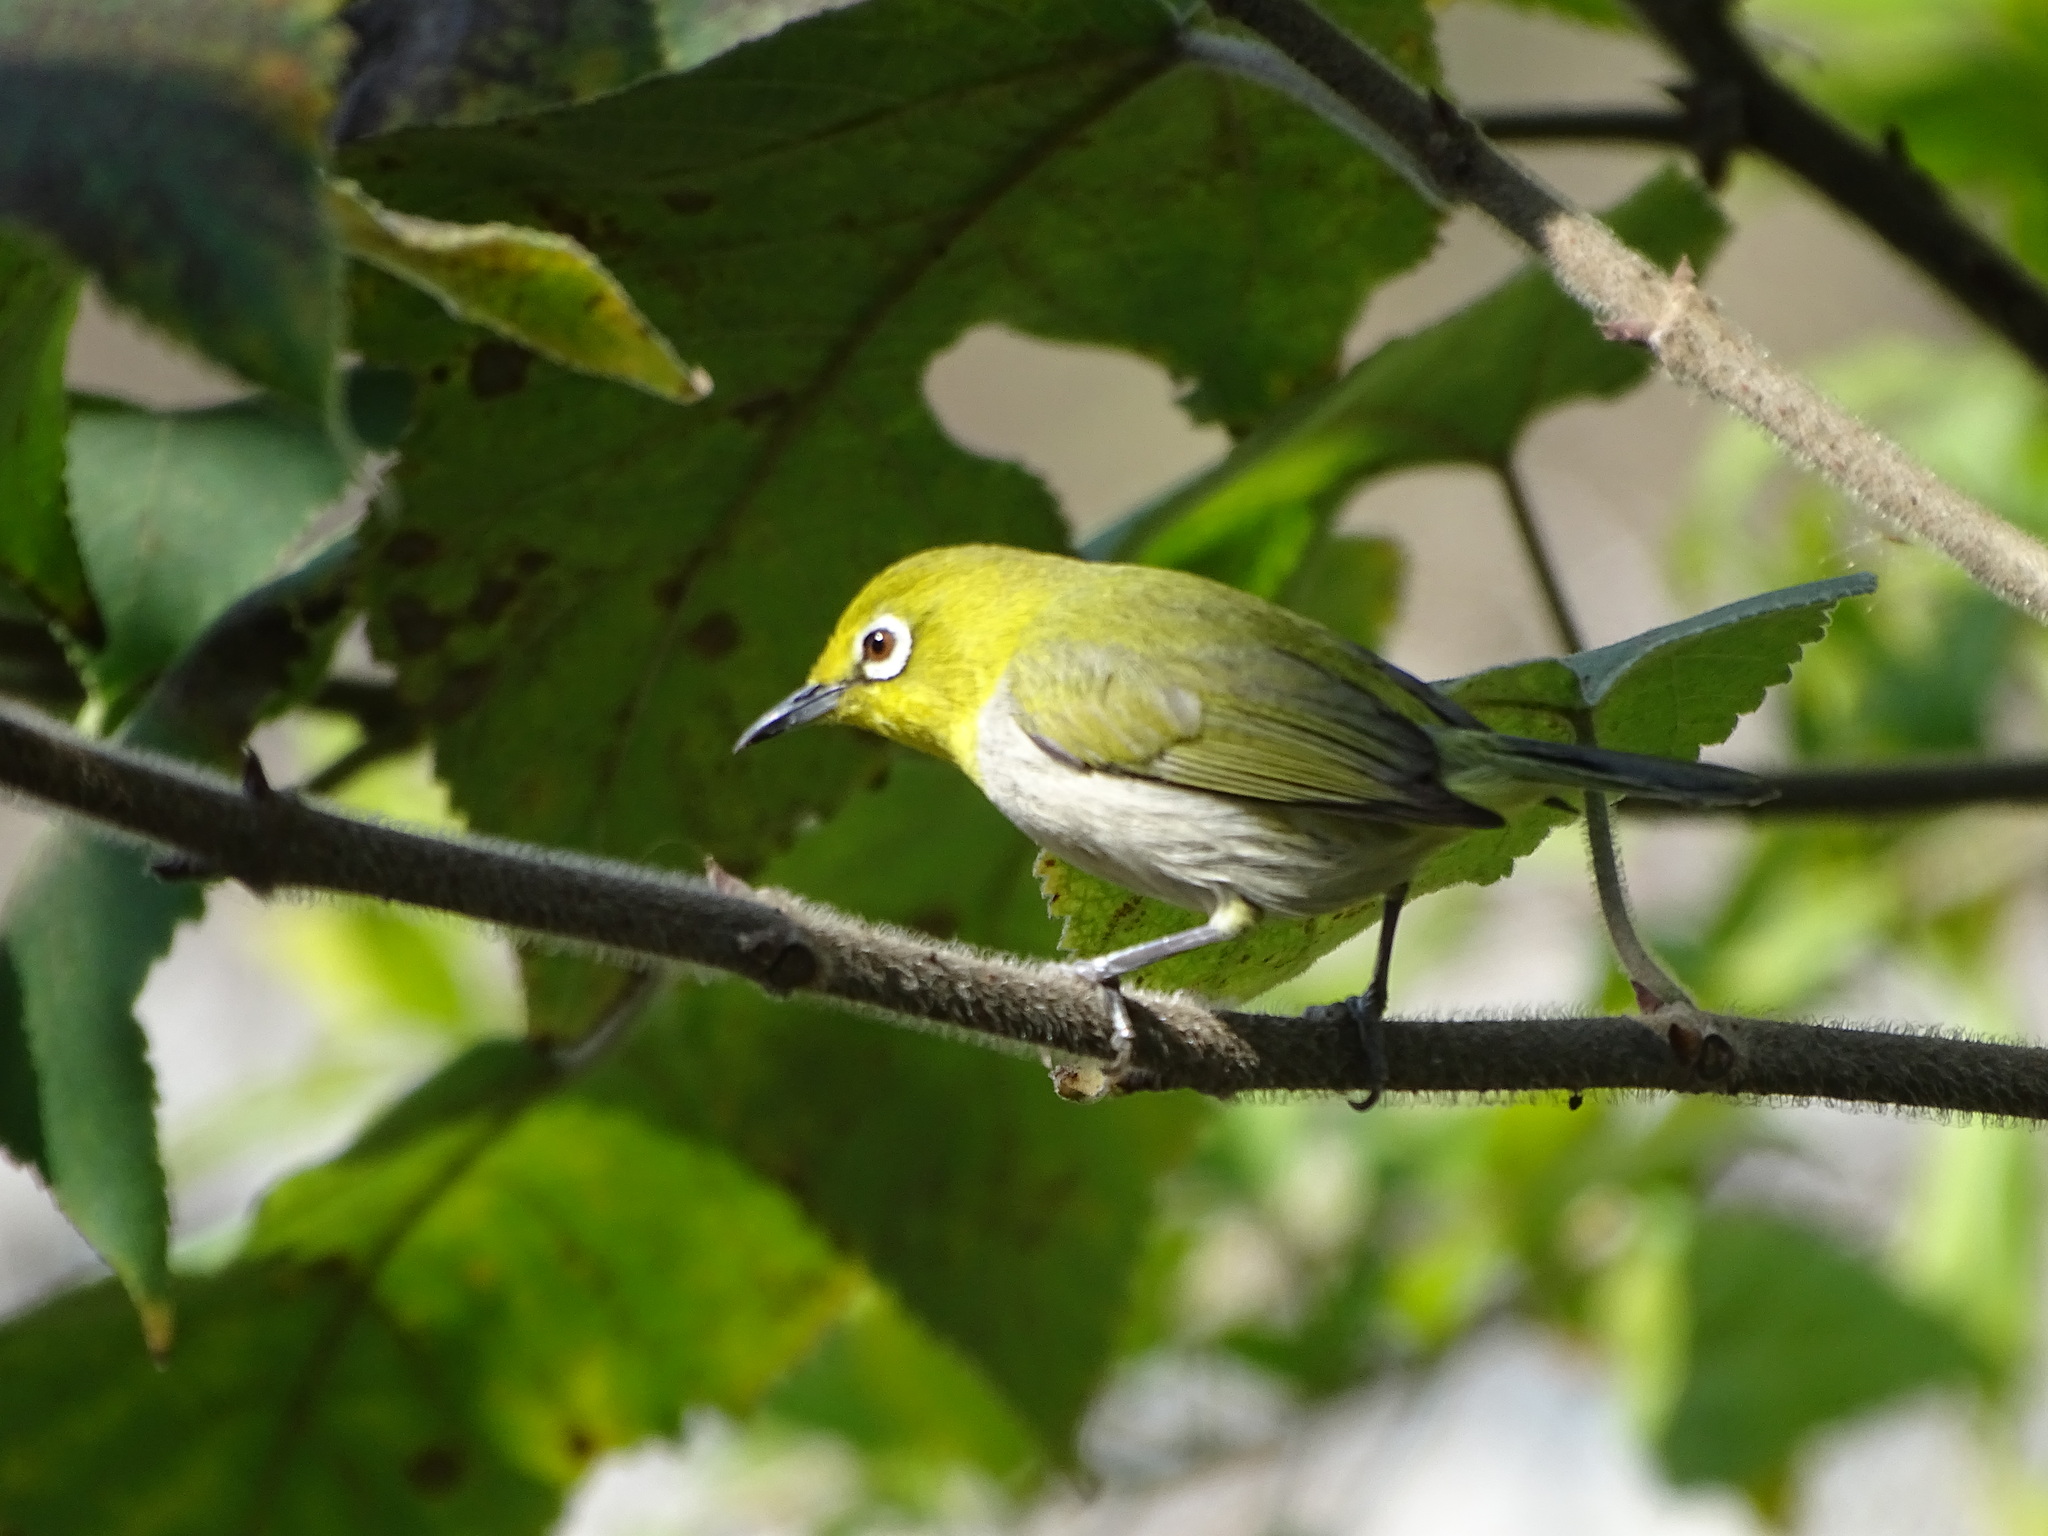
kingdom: Animalia
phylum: Chordata
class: Aves
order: Passeriformes
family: Zosteropidae
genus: Zosterops
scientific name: Zosterops simplex
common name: Swinhoe's white-eye
